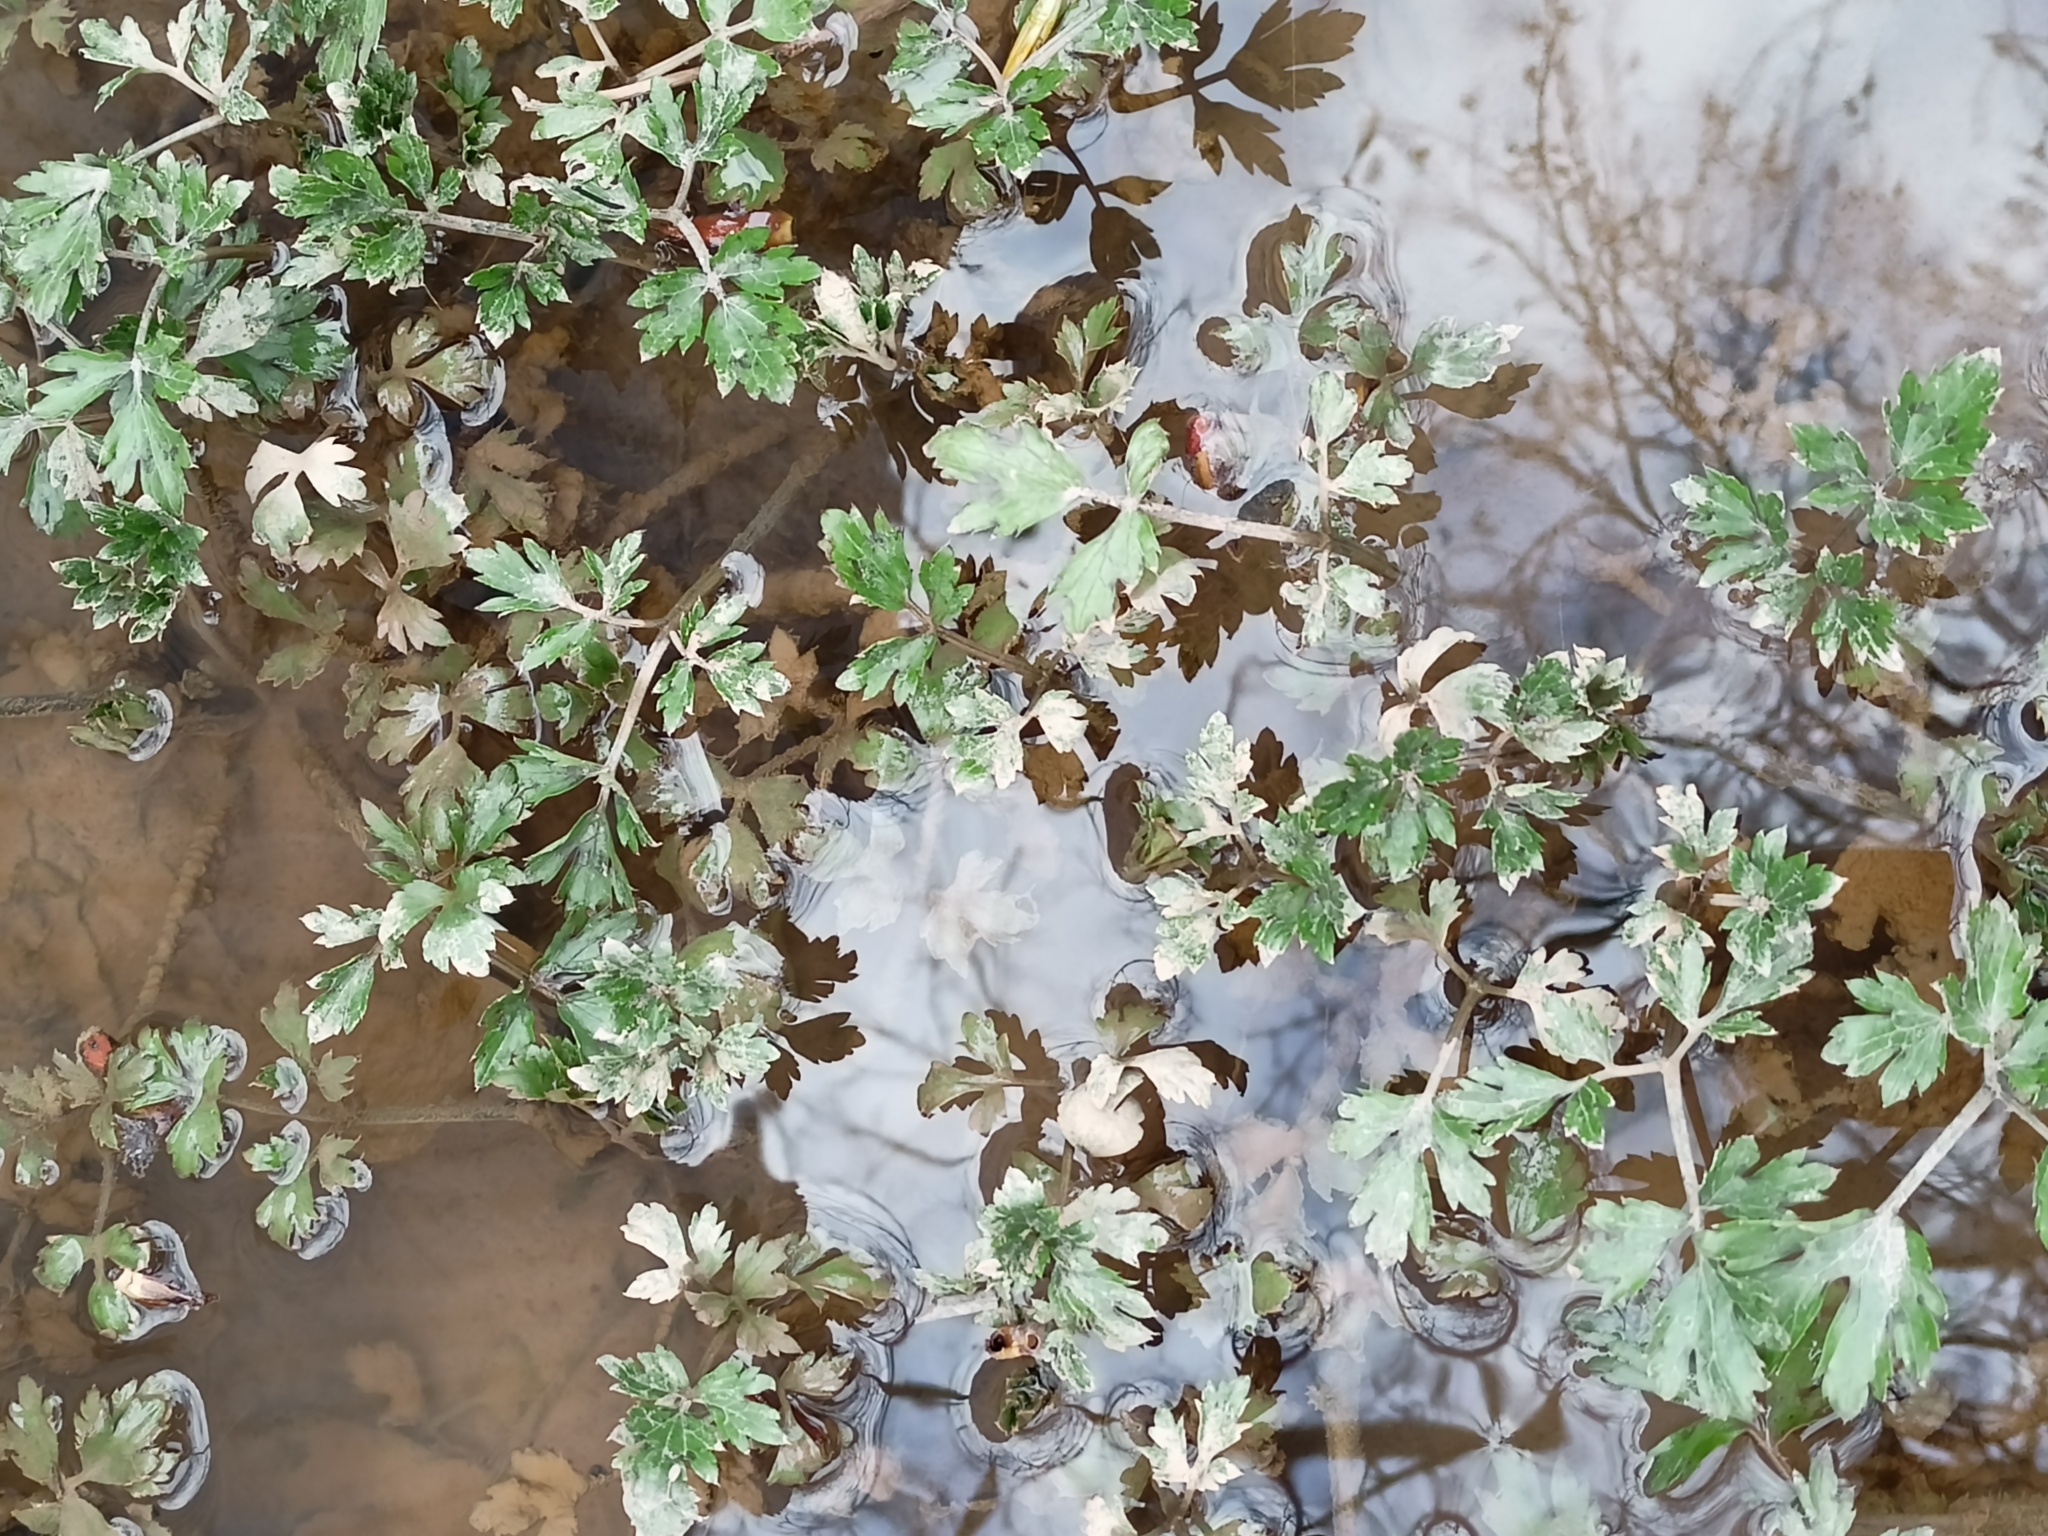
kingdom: Plantae
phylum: Tracheophyta
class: Magnoliopsida
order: Ranunculales
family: Ranunculaceae
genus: Ranunculus
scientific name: Ranunculus repens
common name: Creeping buttercup
